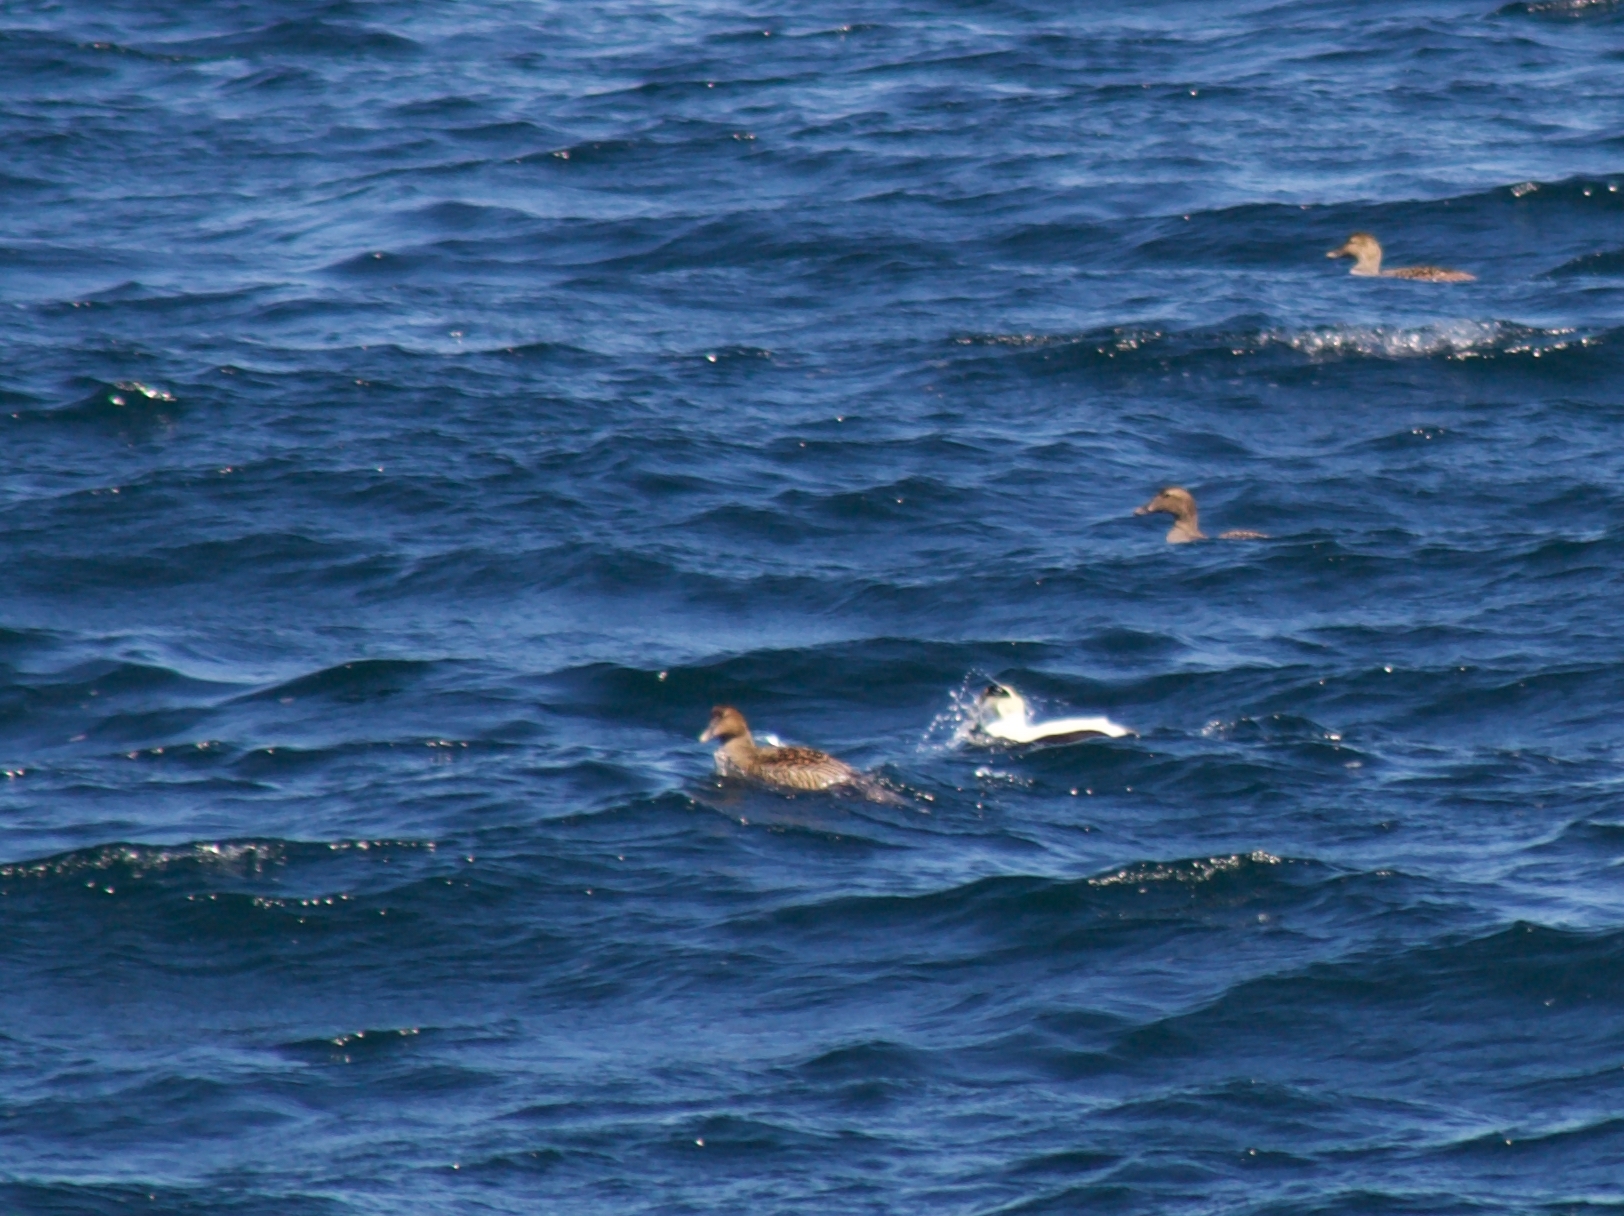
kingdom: Animalia
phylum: Chordata
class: Aves
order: Anseriformes
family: Anatidae
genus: Somateria
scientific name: Somateria mollissima
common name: Common eider
